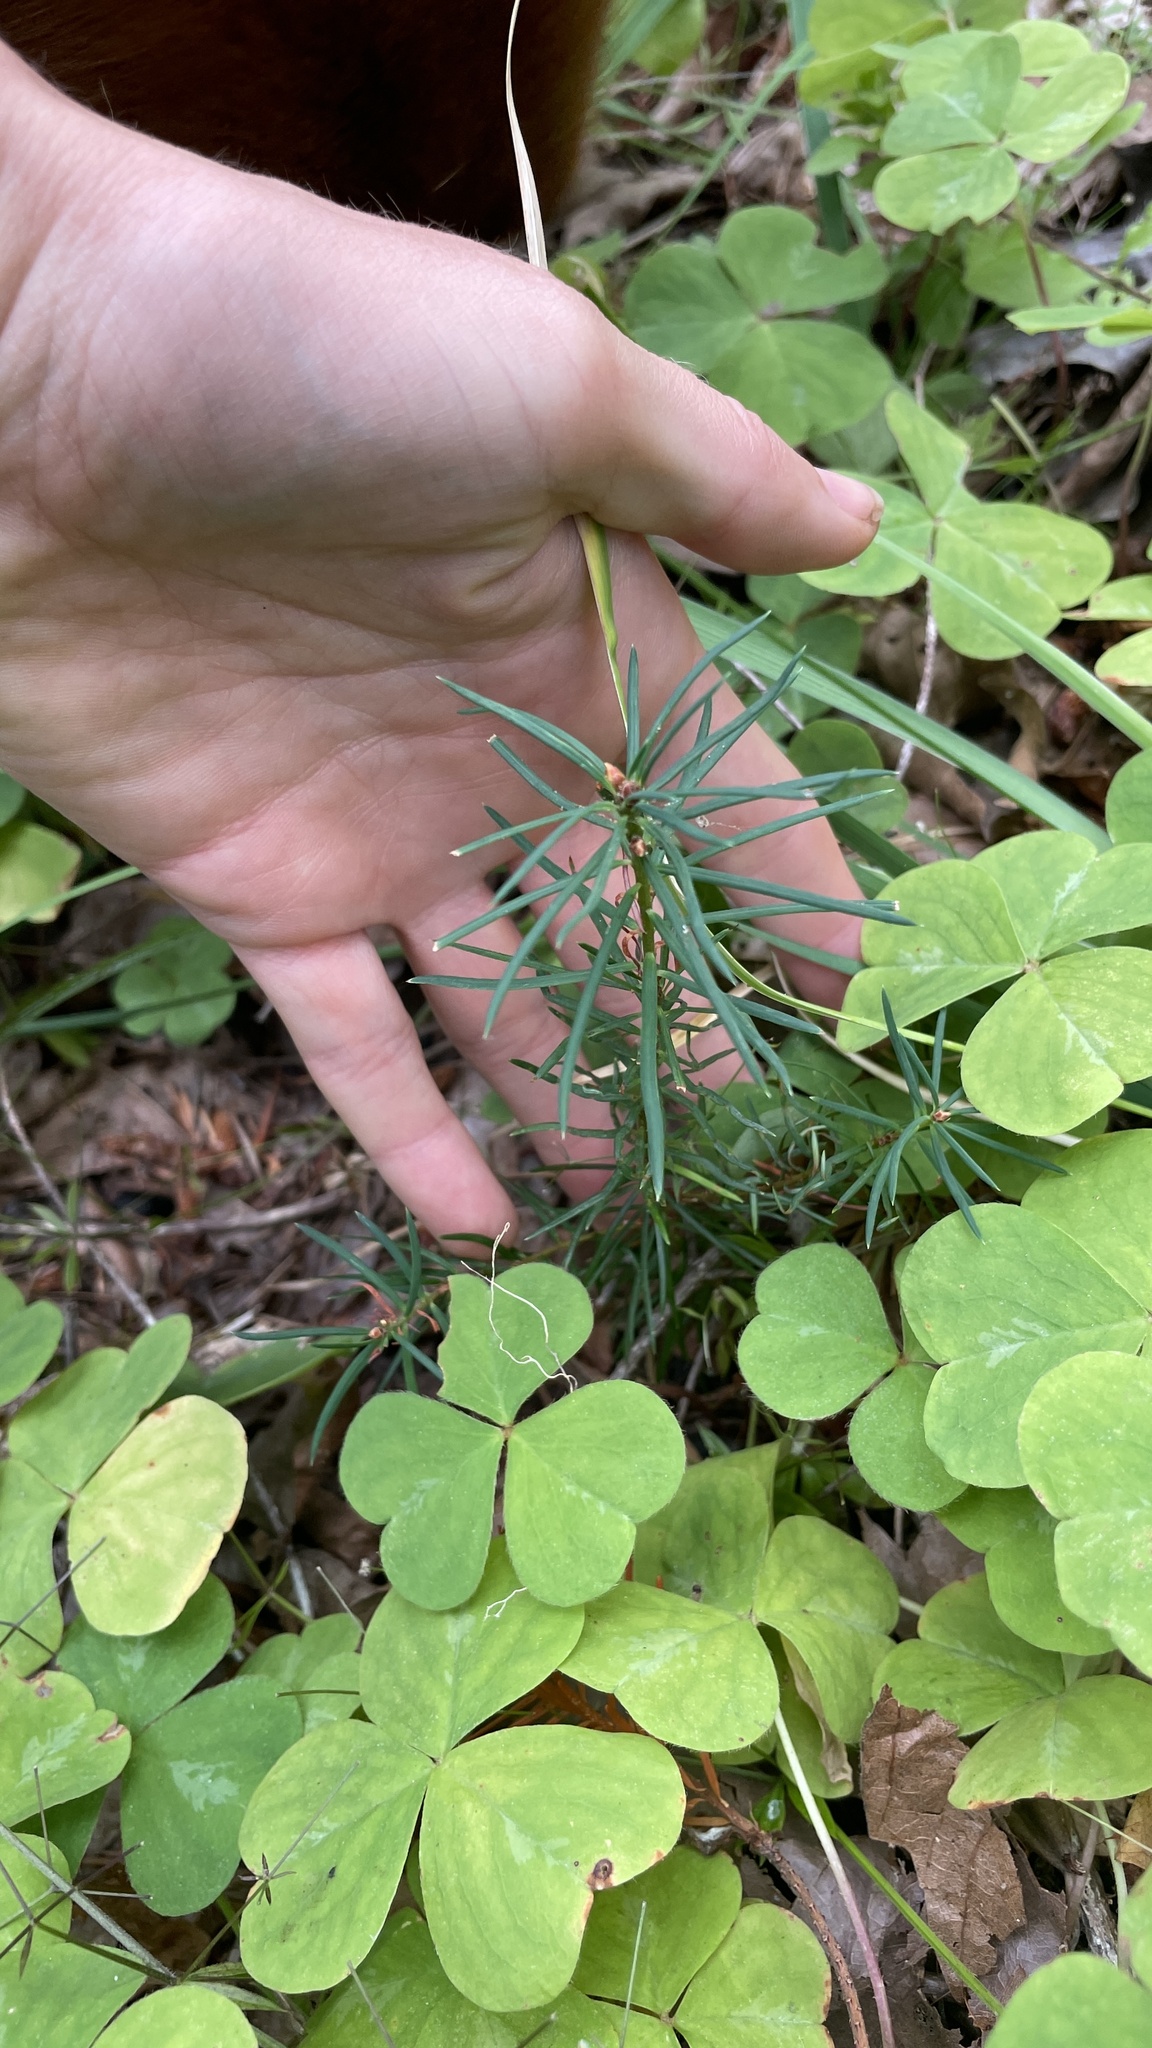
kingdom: Plantae
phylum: Tracheophyta
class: Pinopsida
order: Pinales
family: Pinaceae
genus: Pseudotsuga
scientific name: Pseudotsuga menziesii
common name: Douglas fir
